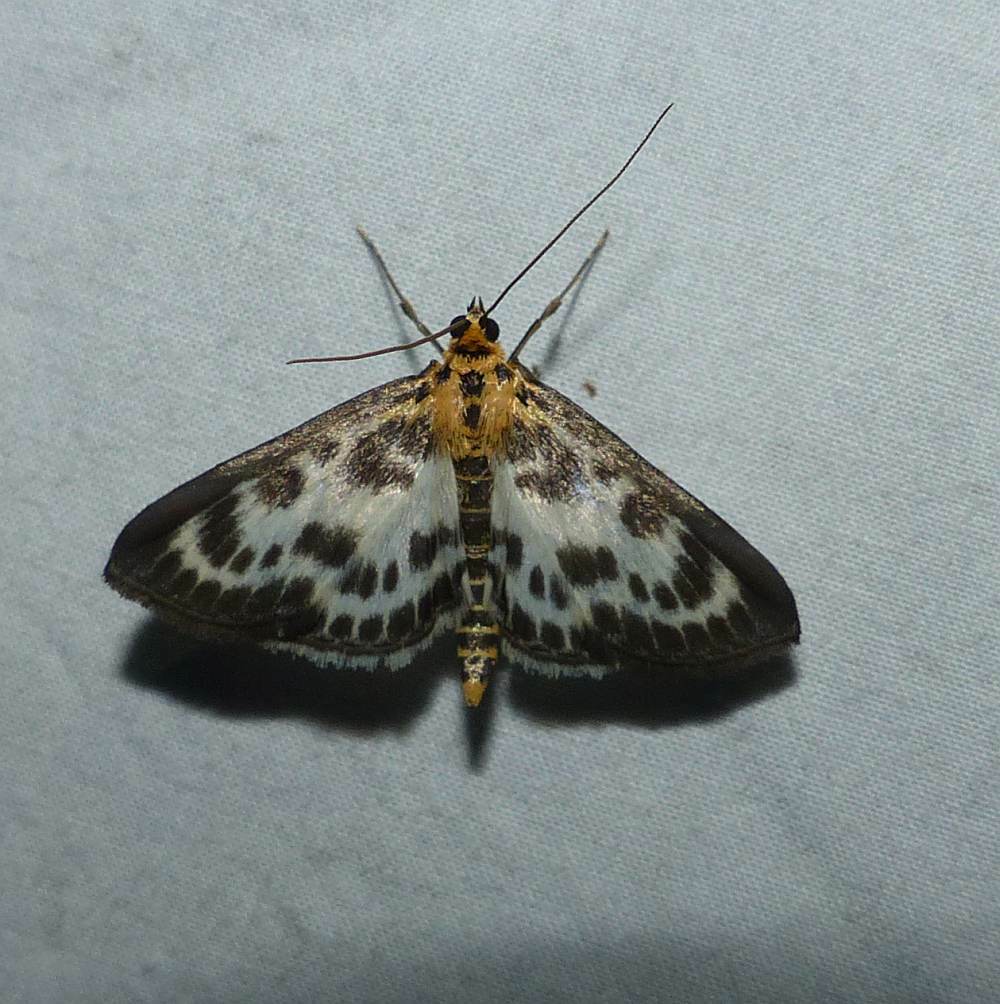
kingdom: Animalia
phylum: Arthropoda
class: Insecta
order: Lepidoptera
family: Crambidae
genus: Anania
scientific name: Anania hortulata
